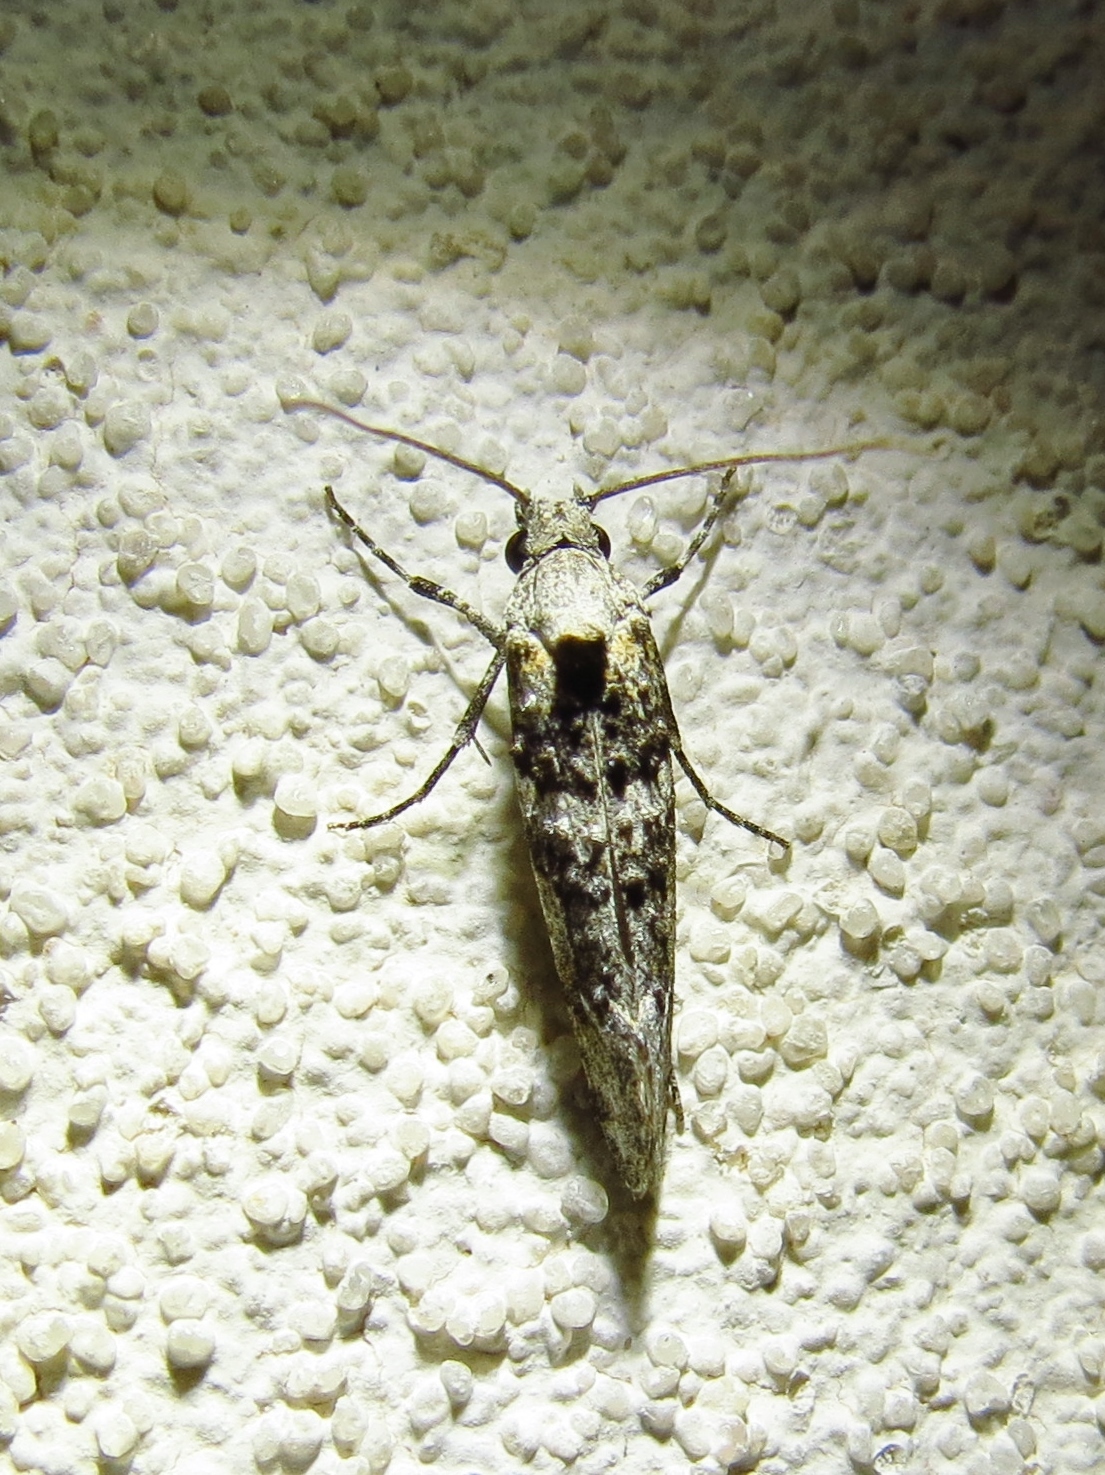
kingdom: Animalia
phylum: Arthropoda
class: Insecta
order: Lepidoptera
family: Tineidae
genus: Dyotopasta
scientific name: Dyotopasta yumaella
